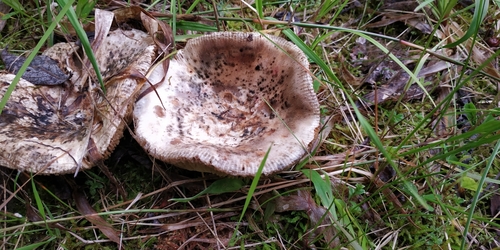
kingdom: Fungi
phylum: Basidiomycota
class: Agaricomycetes
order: Russulales
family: Russulaceae
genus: Russula
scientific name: Russula
